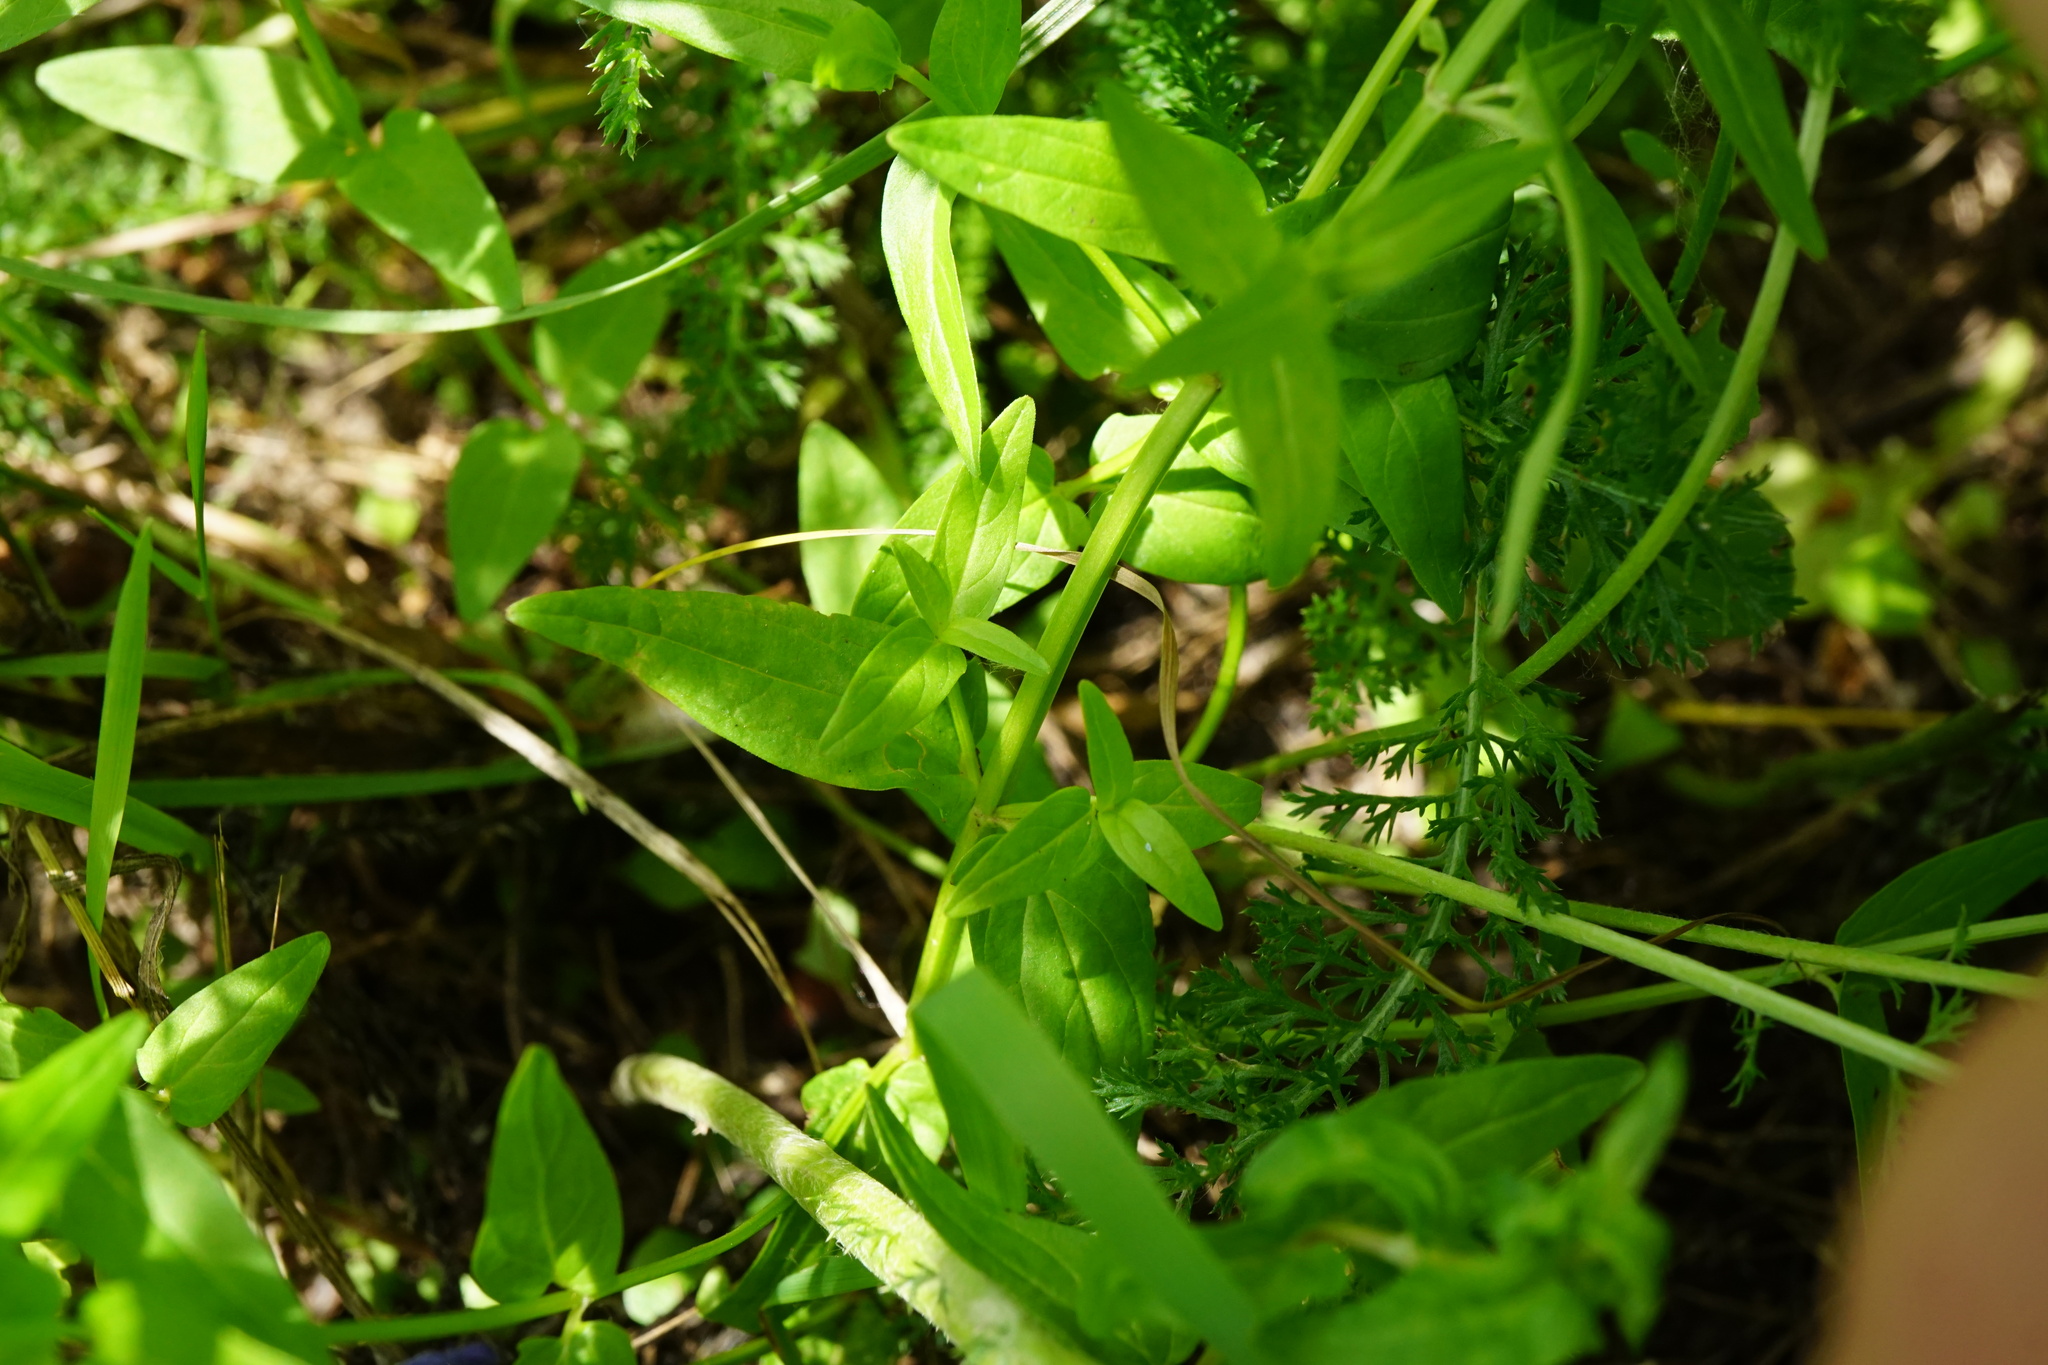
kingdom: Plantae
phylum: Tracheophyta
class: Magnoliopsida
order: Lamiales
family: Lamiaceae
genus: Scutellaria
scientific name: Scutellaria hastifolia
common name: Norfolk skullcap
